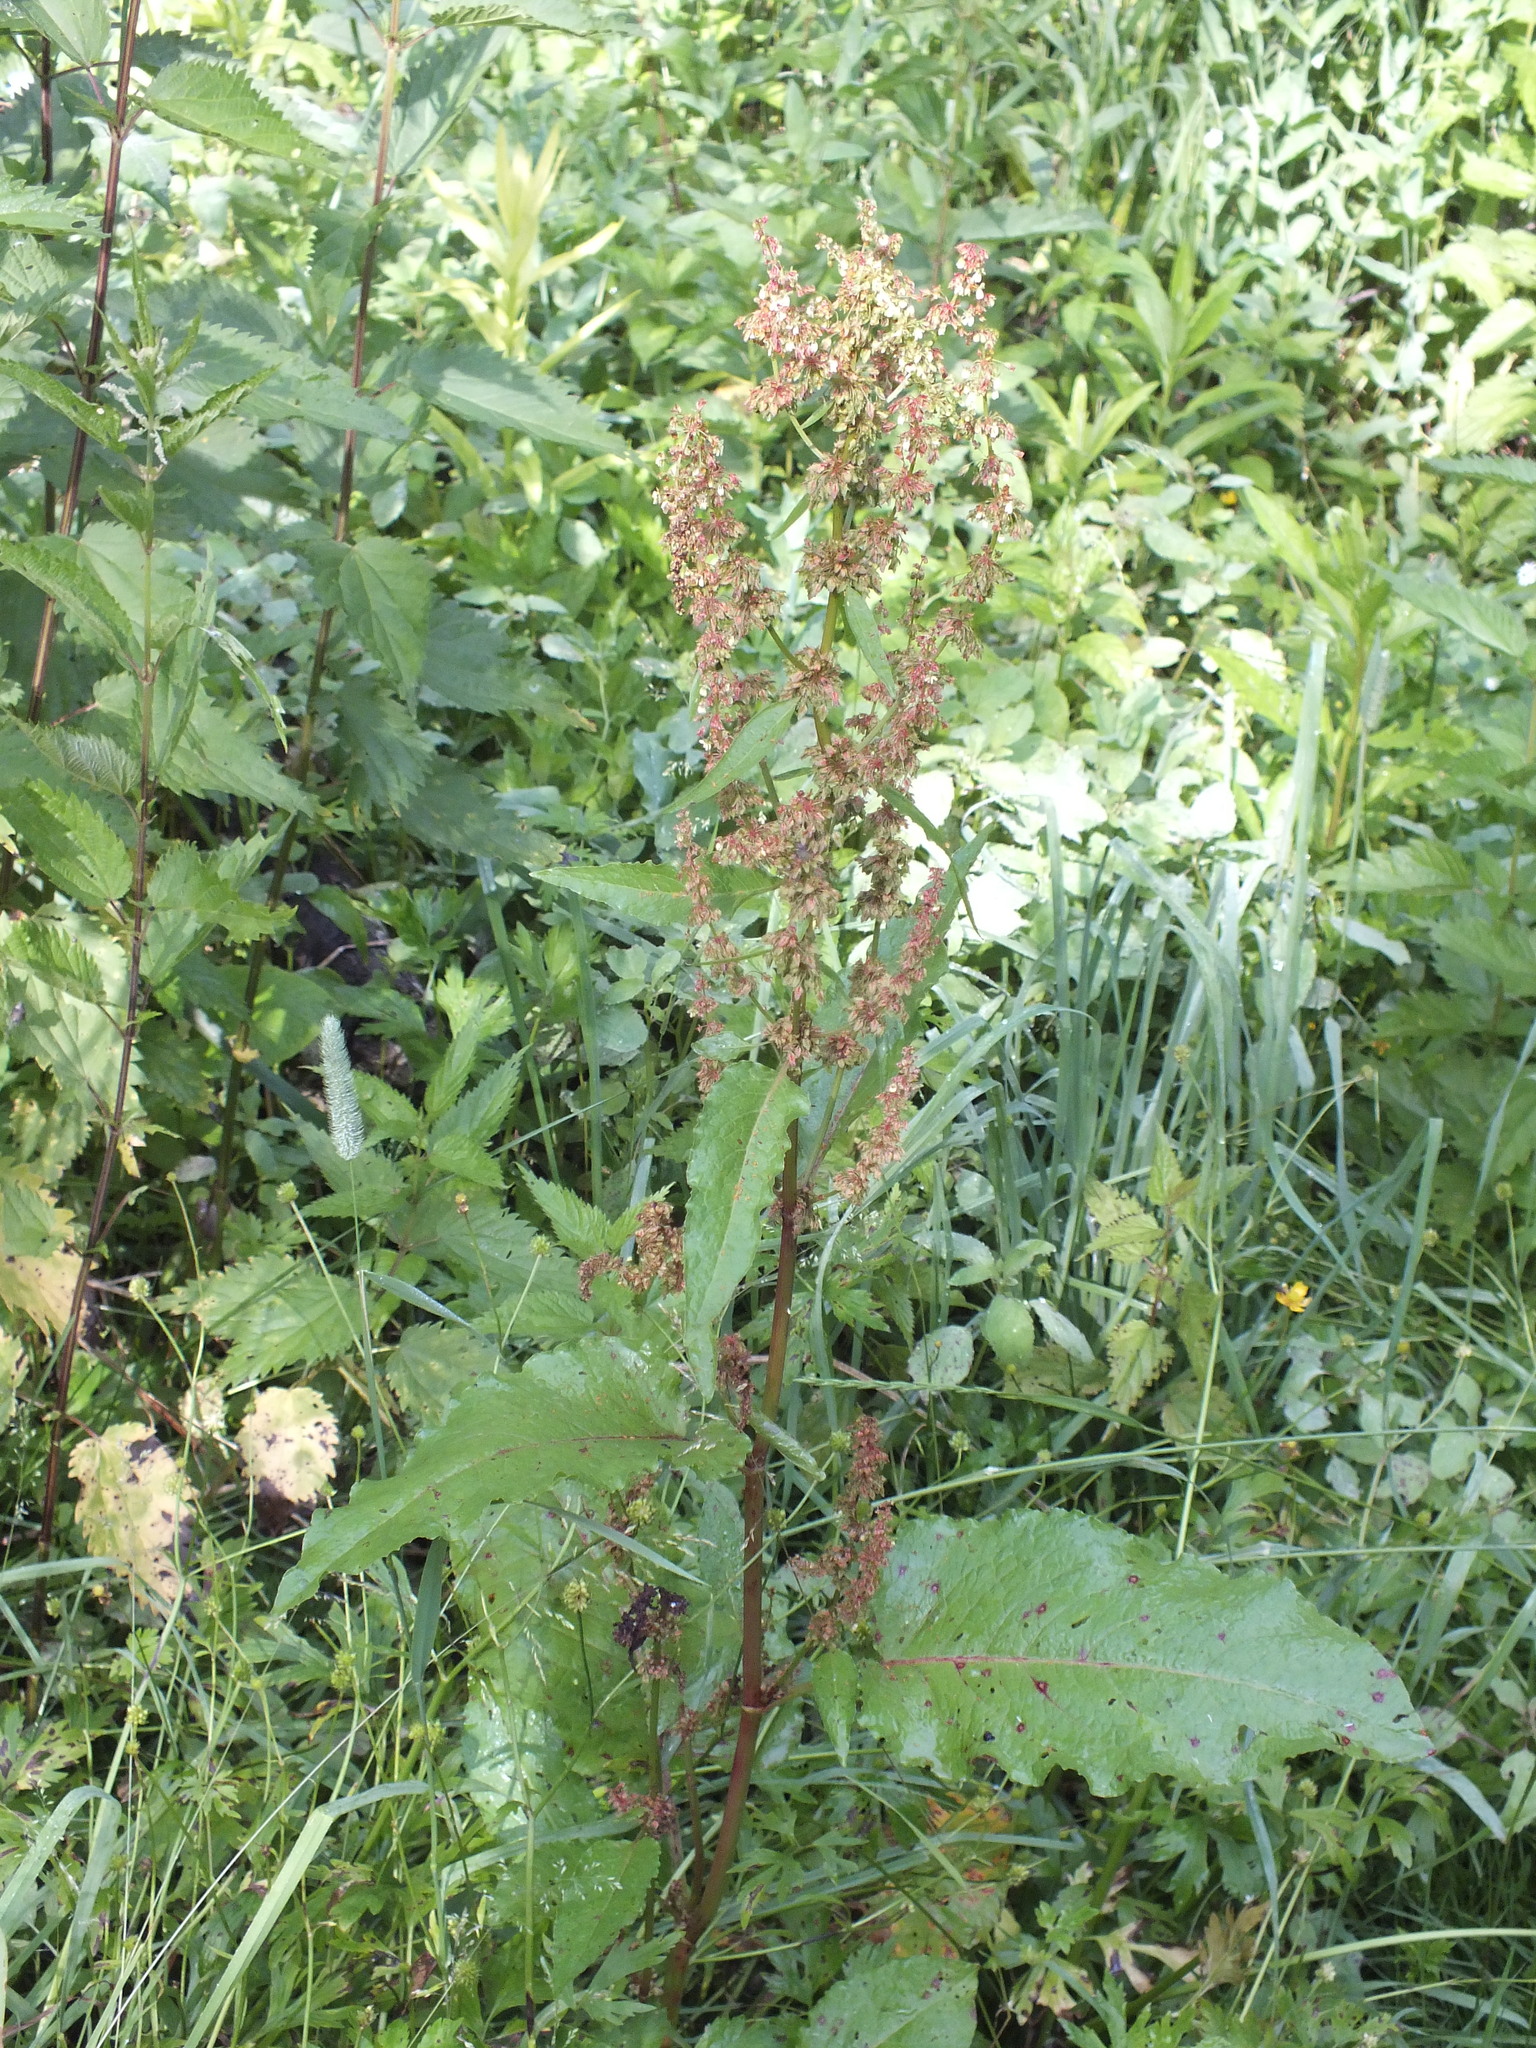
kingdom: Plantae
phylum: Tracheophyta
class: Magnoliopsida
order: Caryophyllales
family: Polygonaceae
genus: Rumex
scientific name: Rumex obtusifolius
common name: Bitter dock
